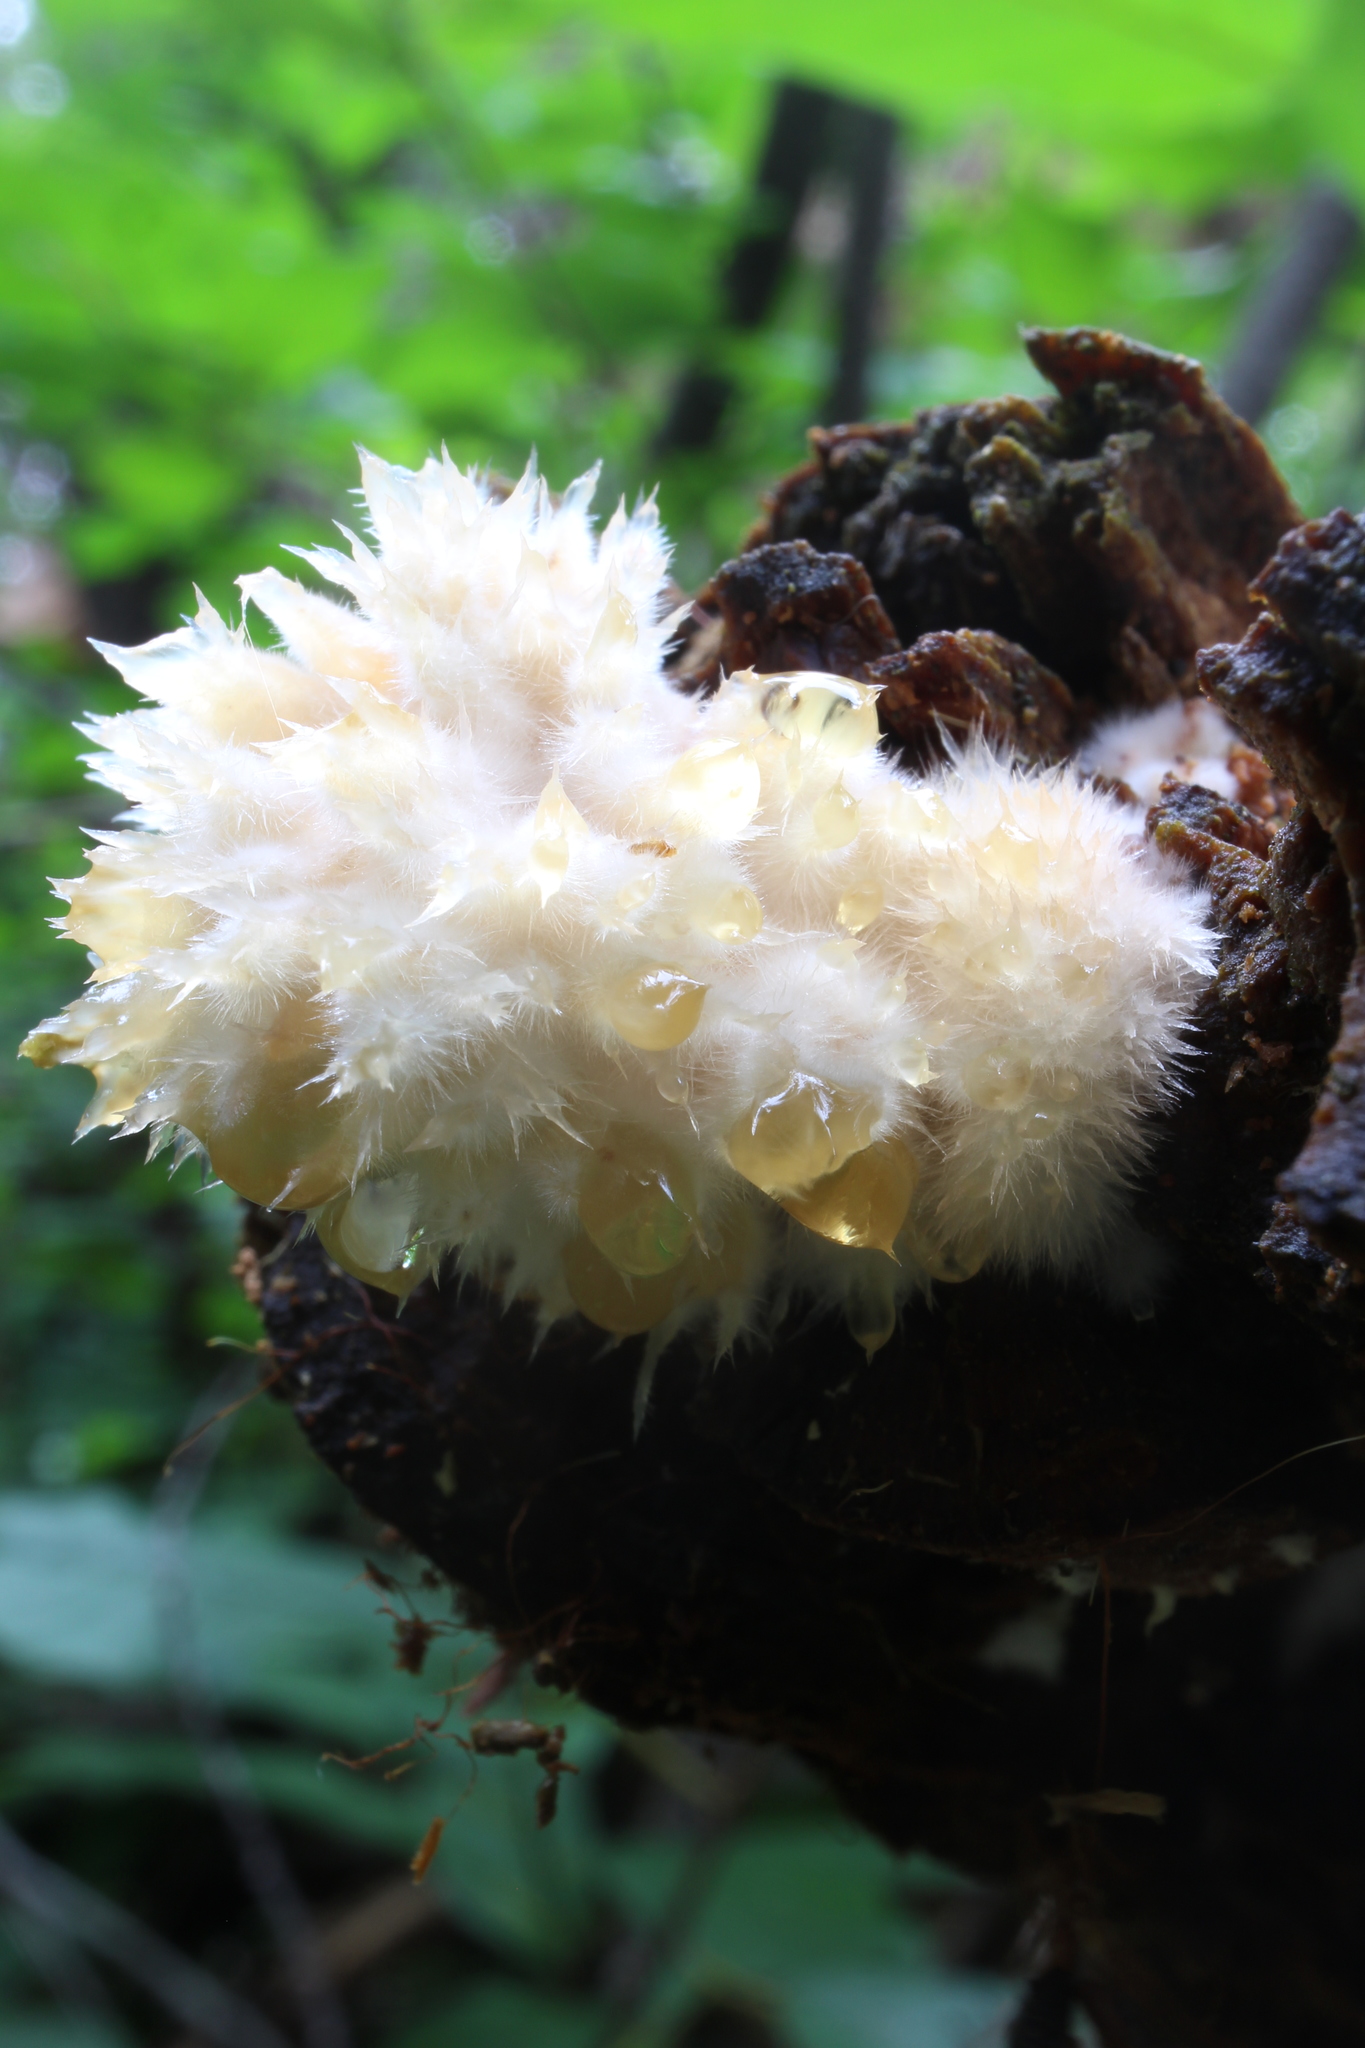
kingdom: Fungi
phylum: Basidiomycota
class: Agaricomycetes
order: Polyporales
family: Dacryobolaceae
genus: Postia
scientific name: Postia ptychogaster
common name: Powderpuff bracket
